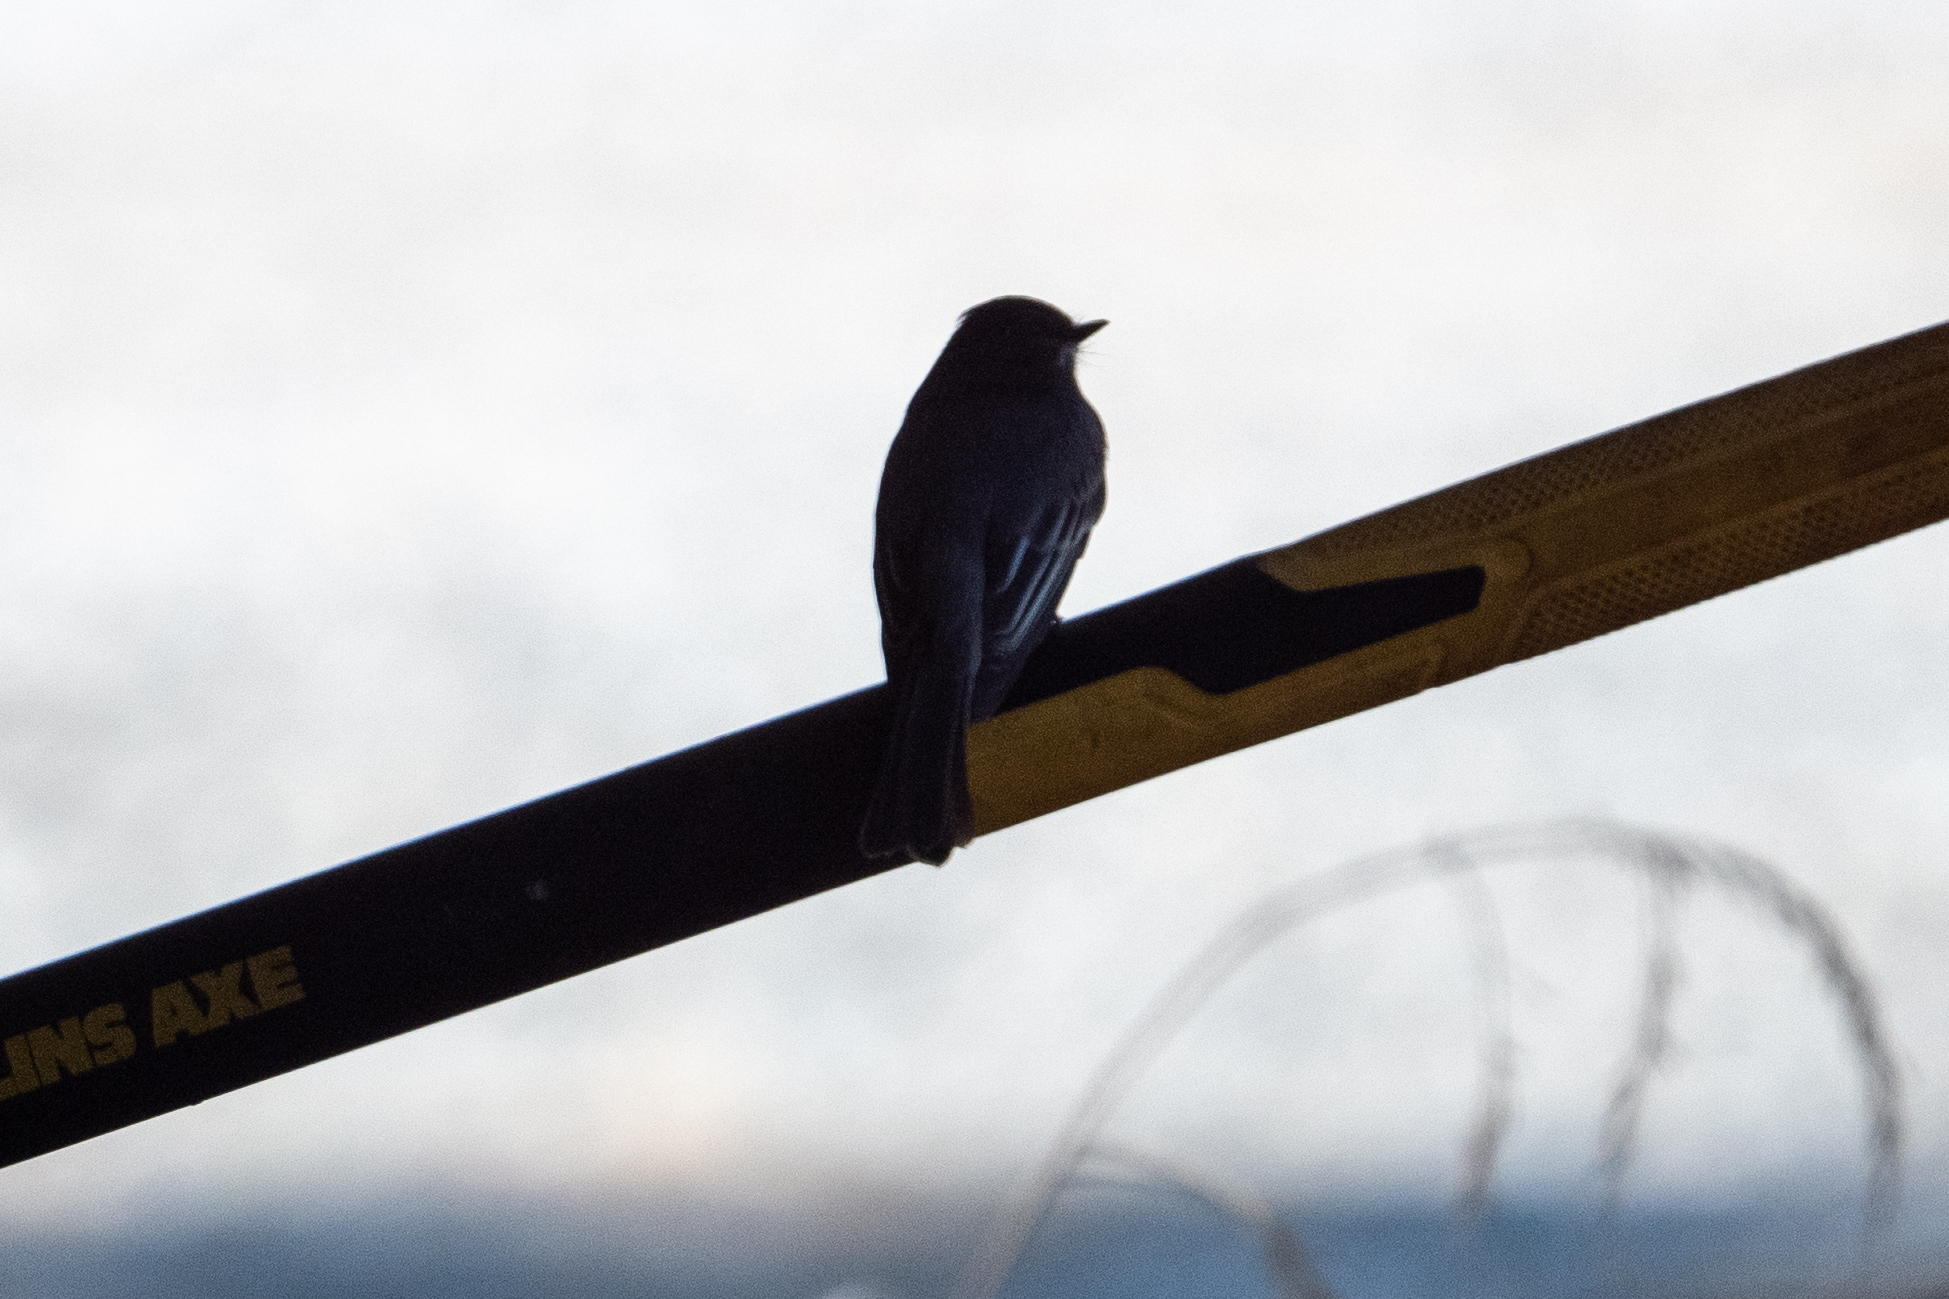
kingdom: Animalia
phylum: Chordata
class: Aves
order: Passeriformes
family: Tyrannidae
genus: Sayornis
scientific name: Sayornis nigricans
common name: Black phoebe
